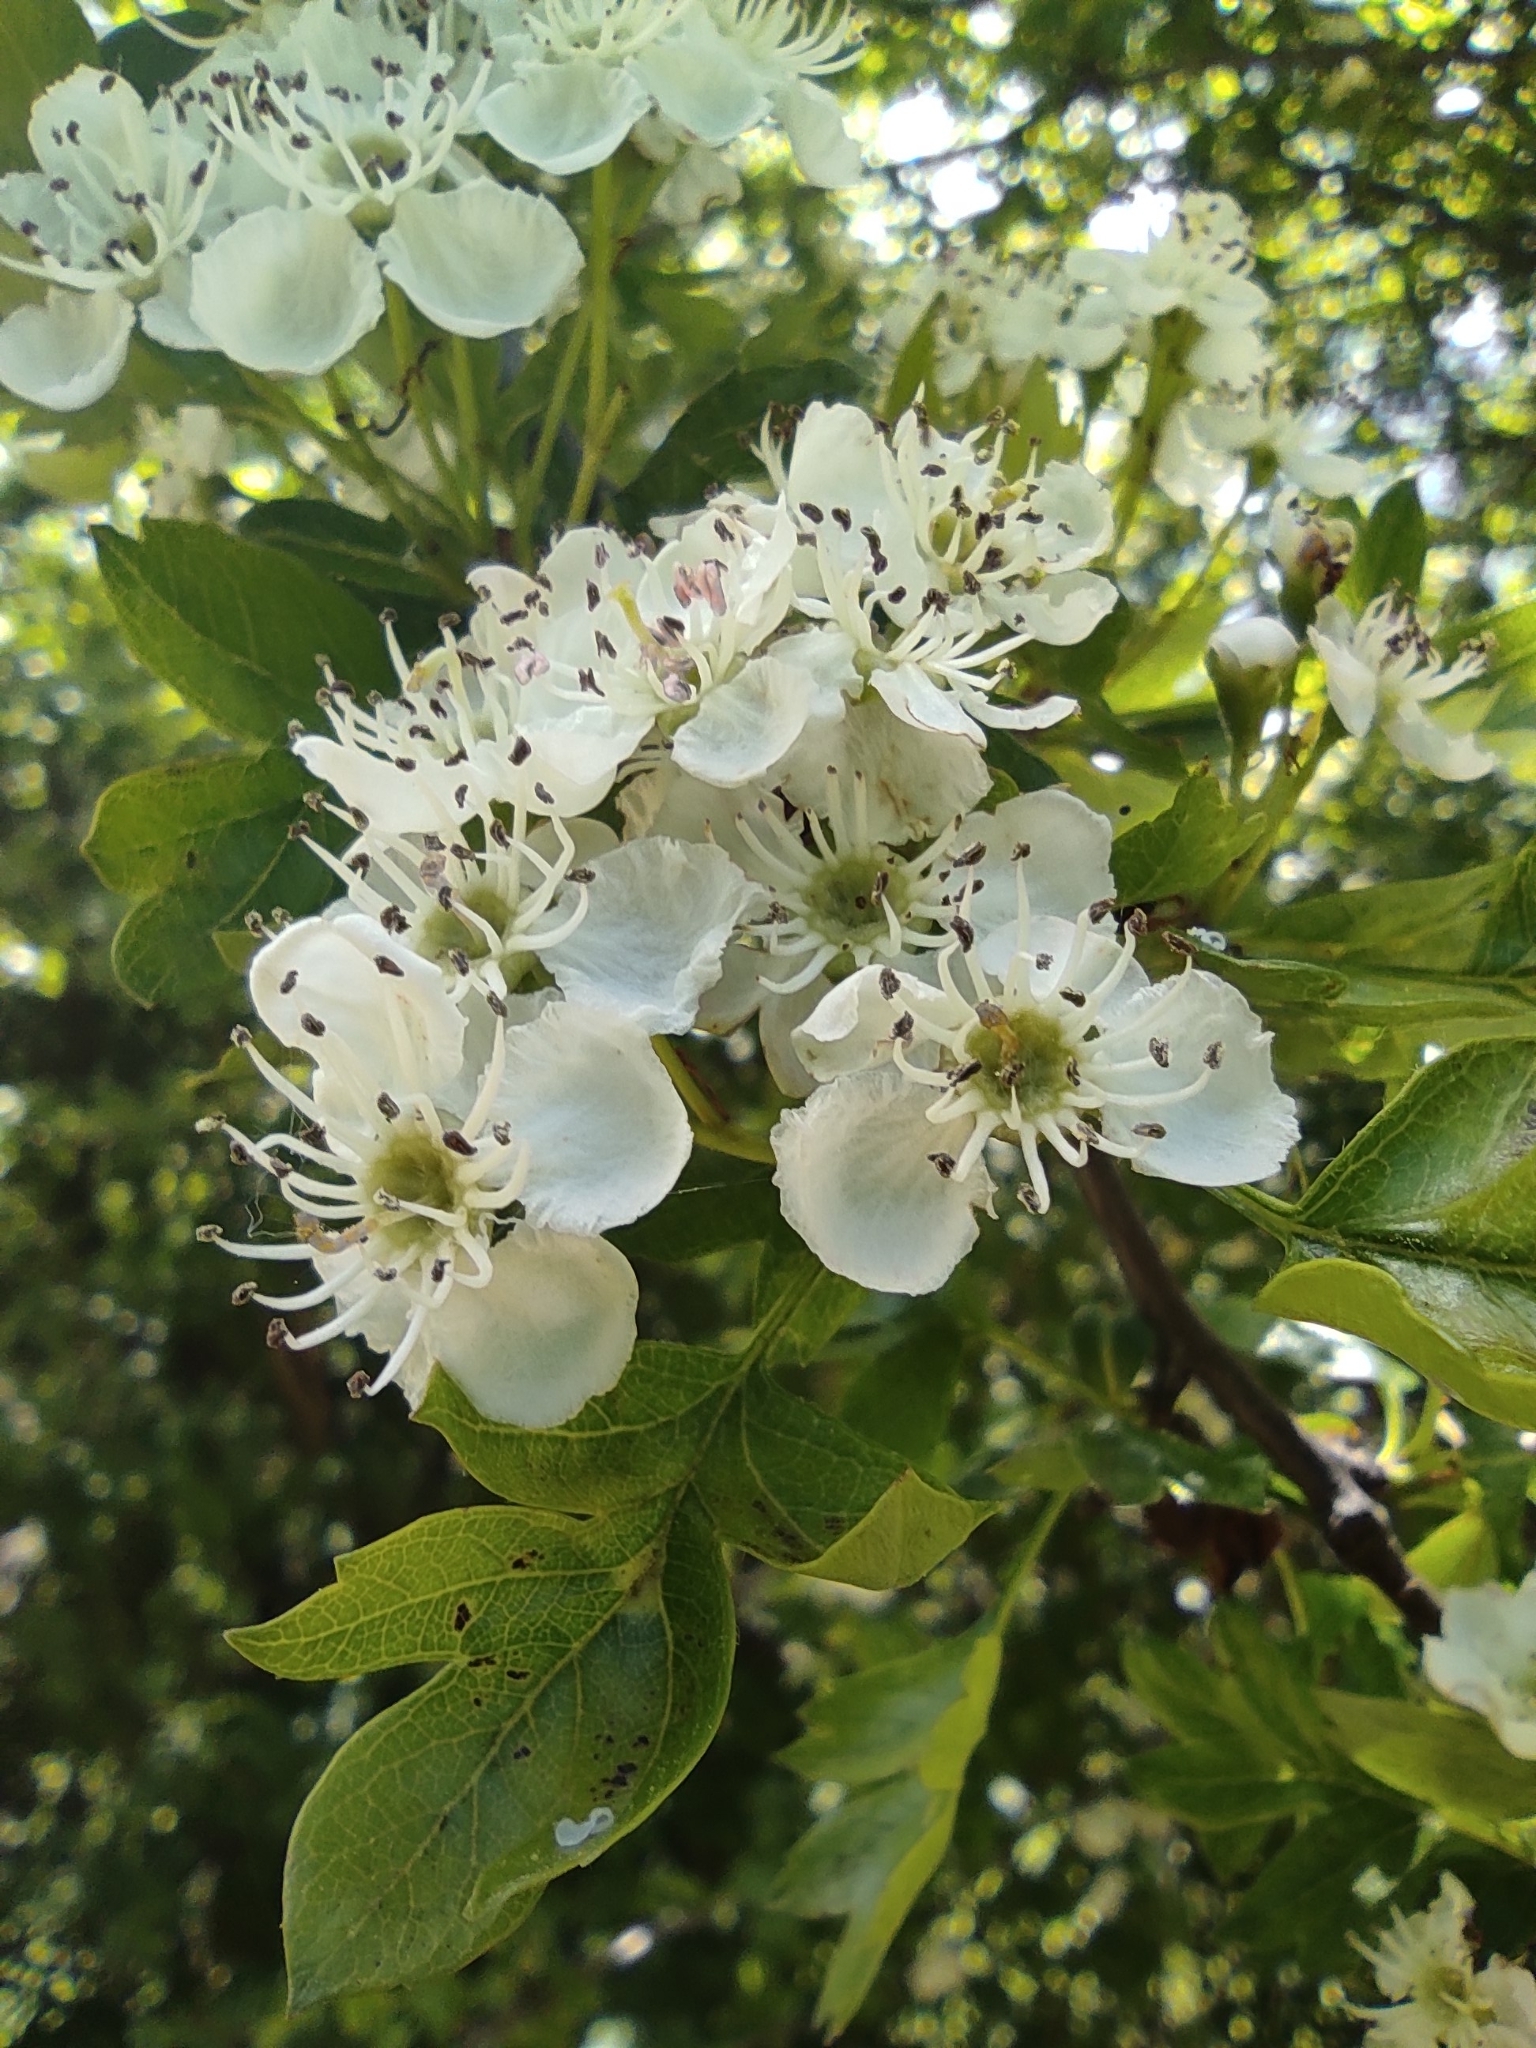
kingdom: Plantae
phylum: Tracheophyta
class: Magnoliopsida
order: Rosales
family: Rosaceae
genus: Crataegus
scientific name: Crataegus monogyna
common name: Hawthorn
